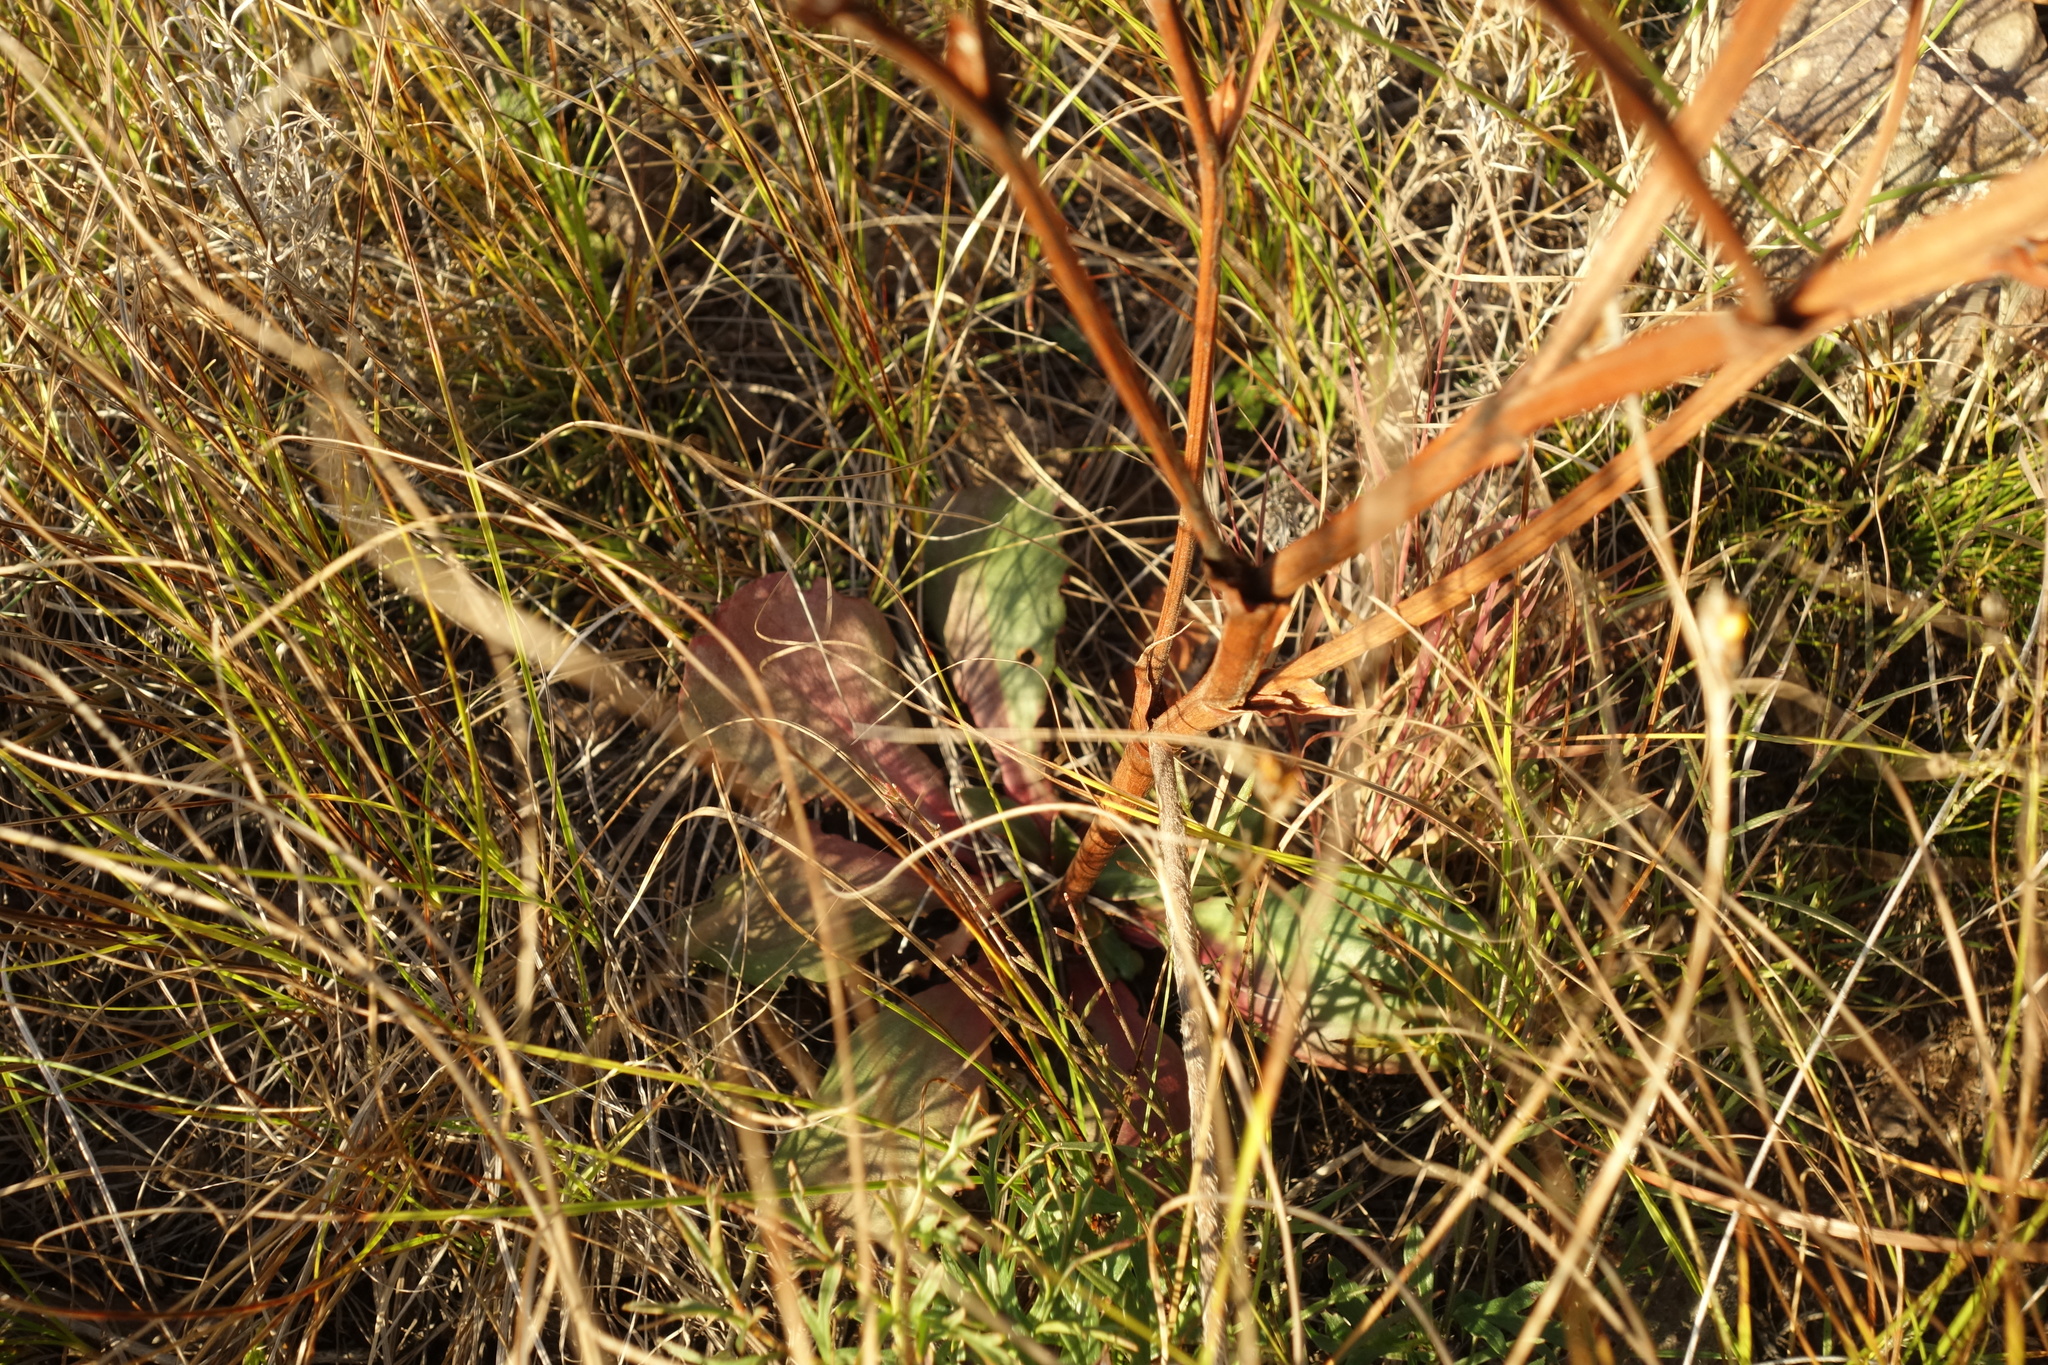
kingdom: Plantae
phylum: Tracheophyta
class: Magnoliopsida
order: Caryophyllales
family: Plumbaginaceae
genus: Goniolimon
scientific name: Goniolimon speciosum
